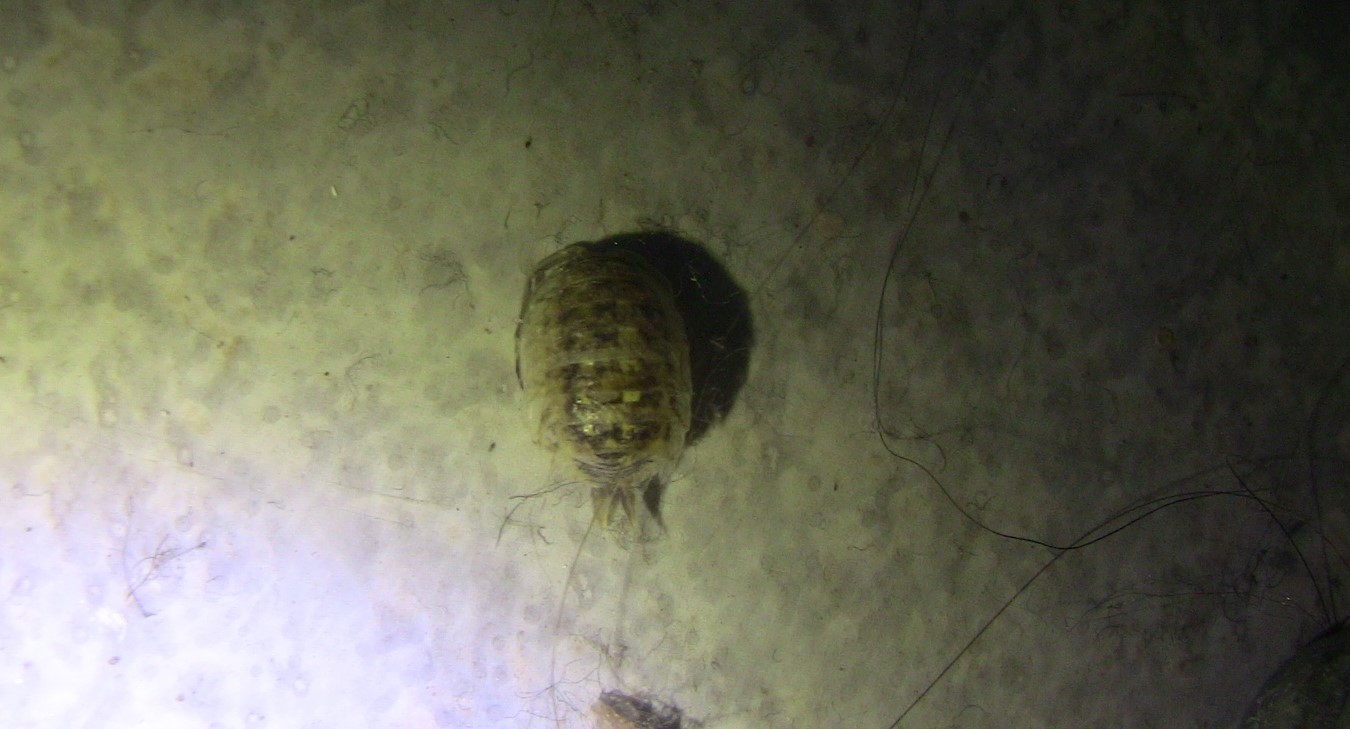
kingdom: Animalia
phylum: Arthropoda
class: Malacostraca
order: Isopoda
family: Porcellionidae
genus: Porcellio
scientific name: Porcellio spinicornis
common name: Painted woodlouse
